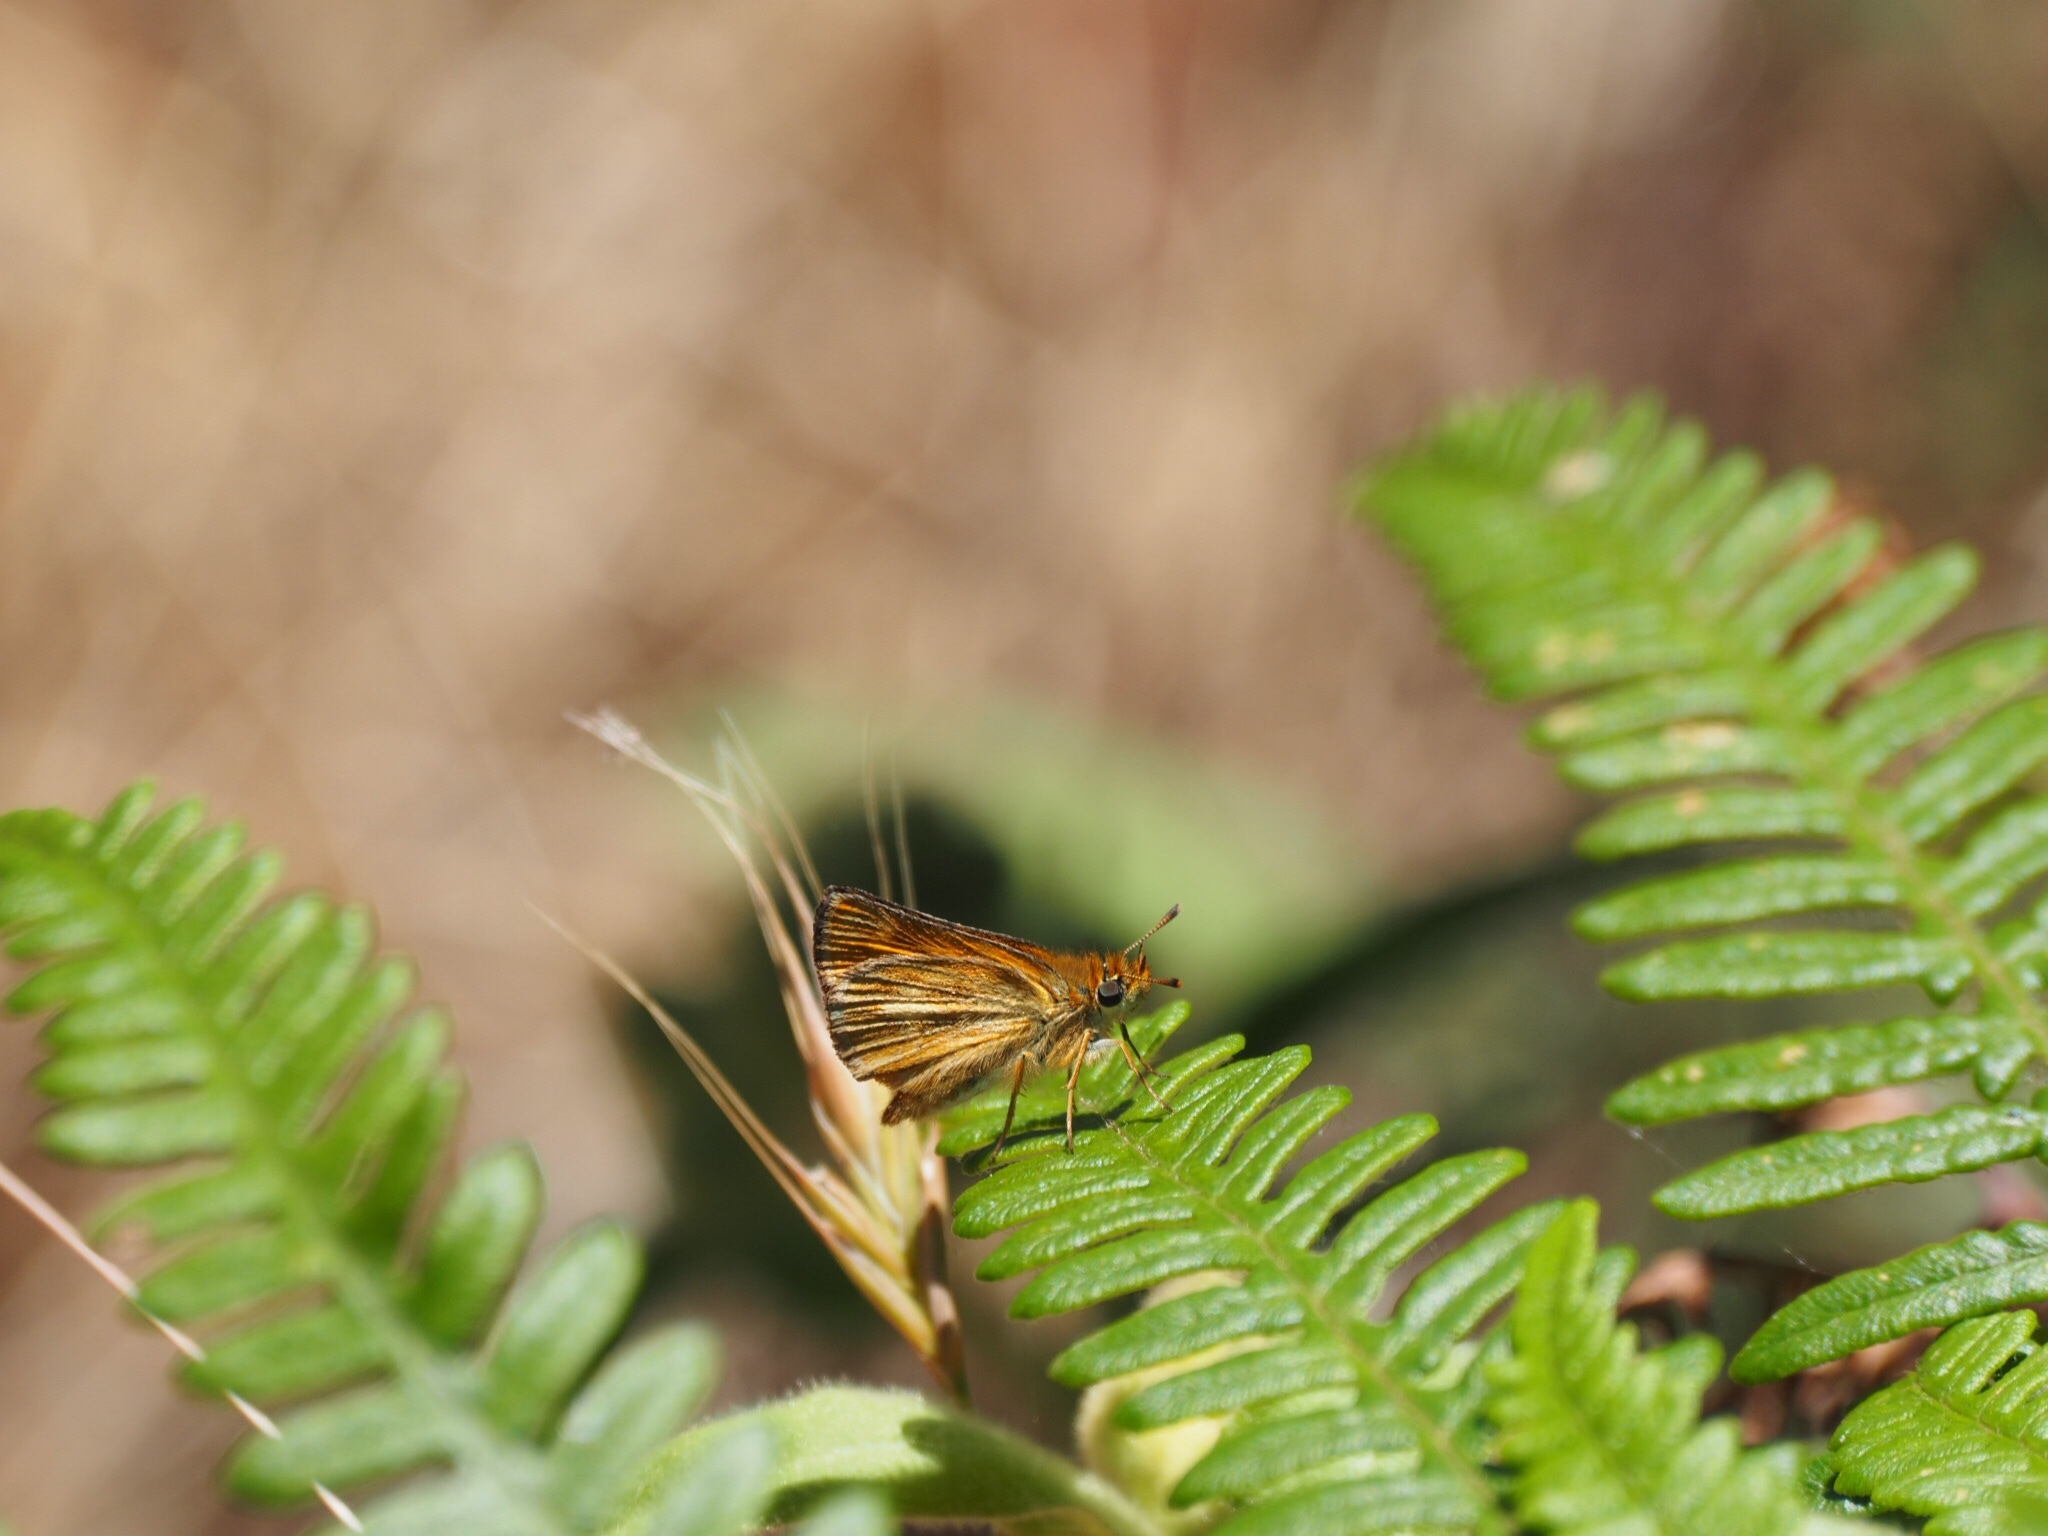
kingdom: Animalia
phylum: Arthropoda
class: Insecta
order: Lepidoptera
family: Hesperiidae
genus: Thymelicus
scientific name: Thymelicus acteon
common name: Lulworth skipper
